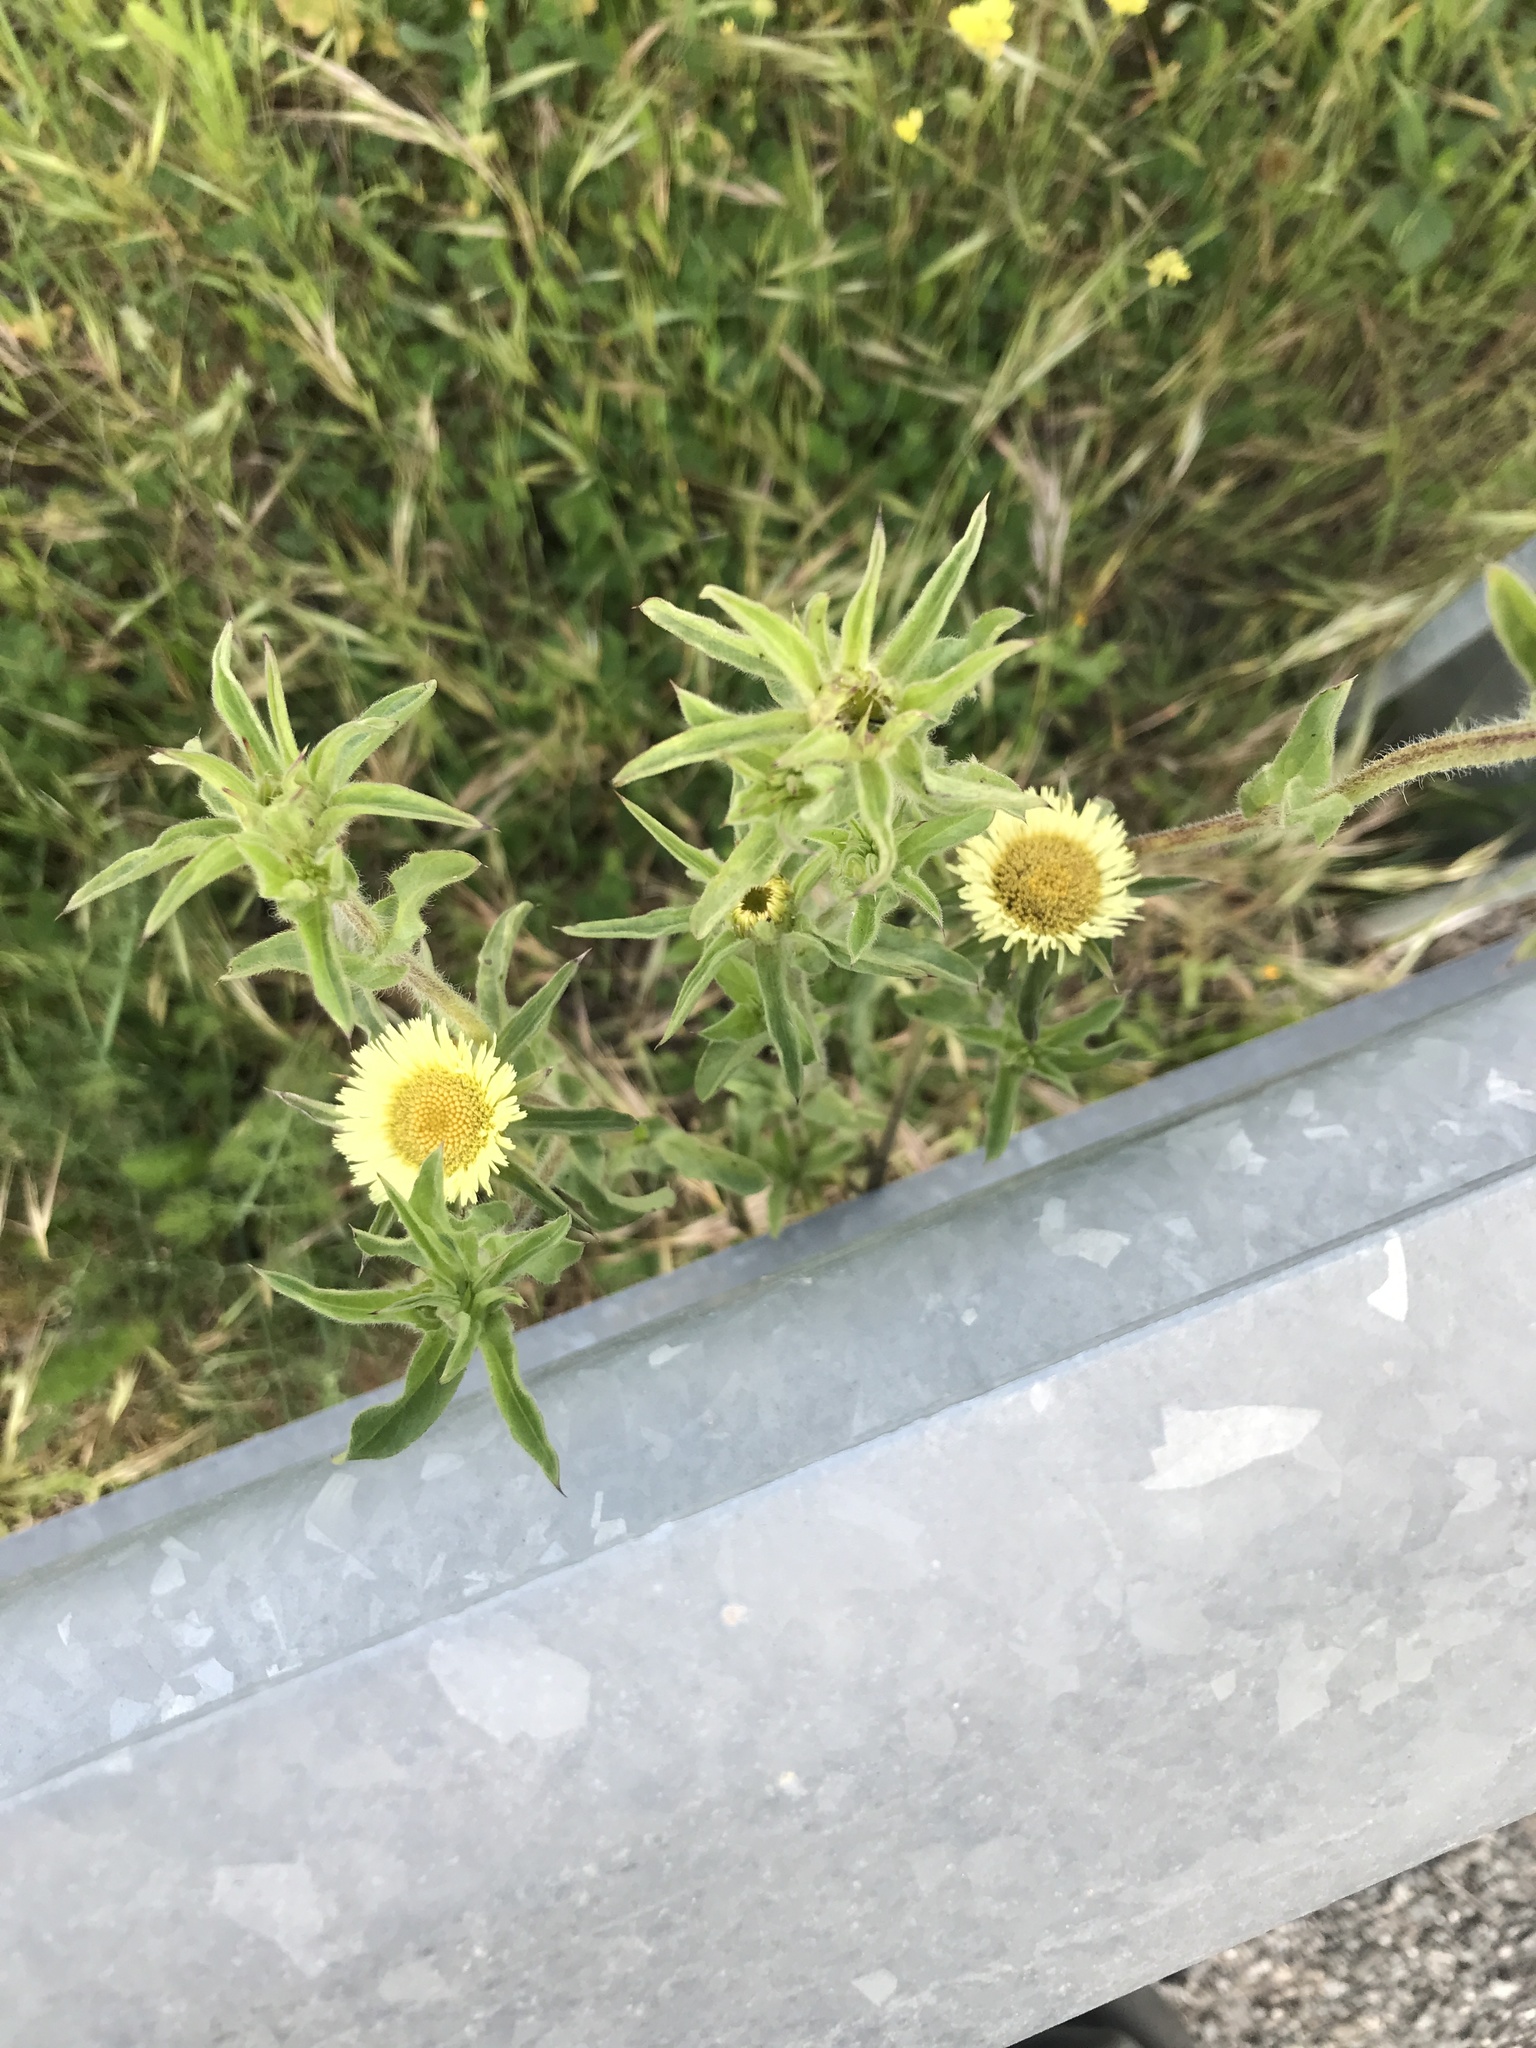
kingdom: Plantae
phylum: Tracheophyta
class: Magnoliopsida
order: Asterales
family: Asteraceae
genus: Pallenis
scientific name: Pallenis spinosa
